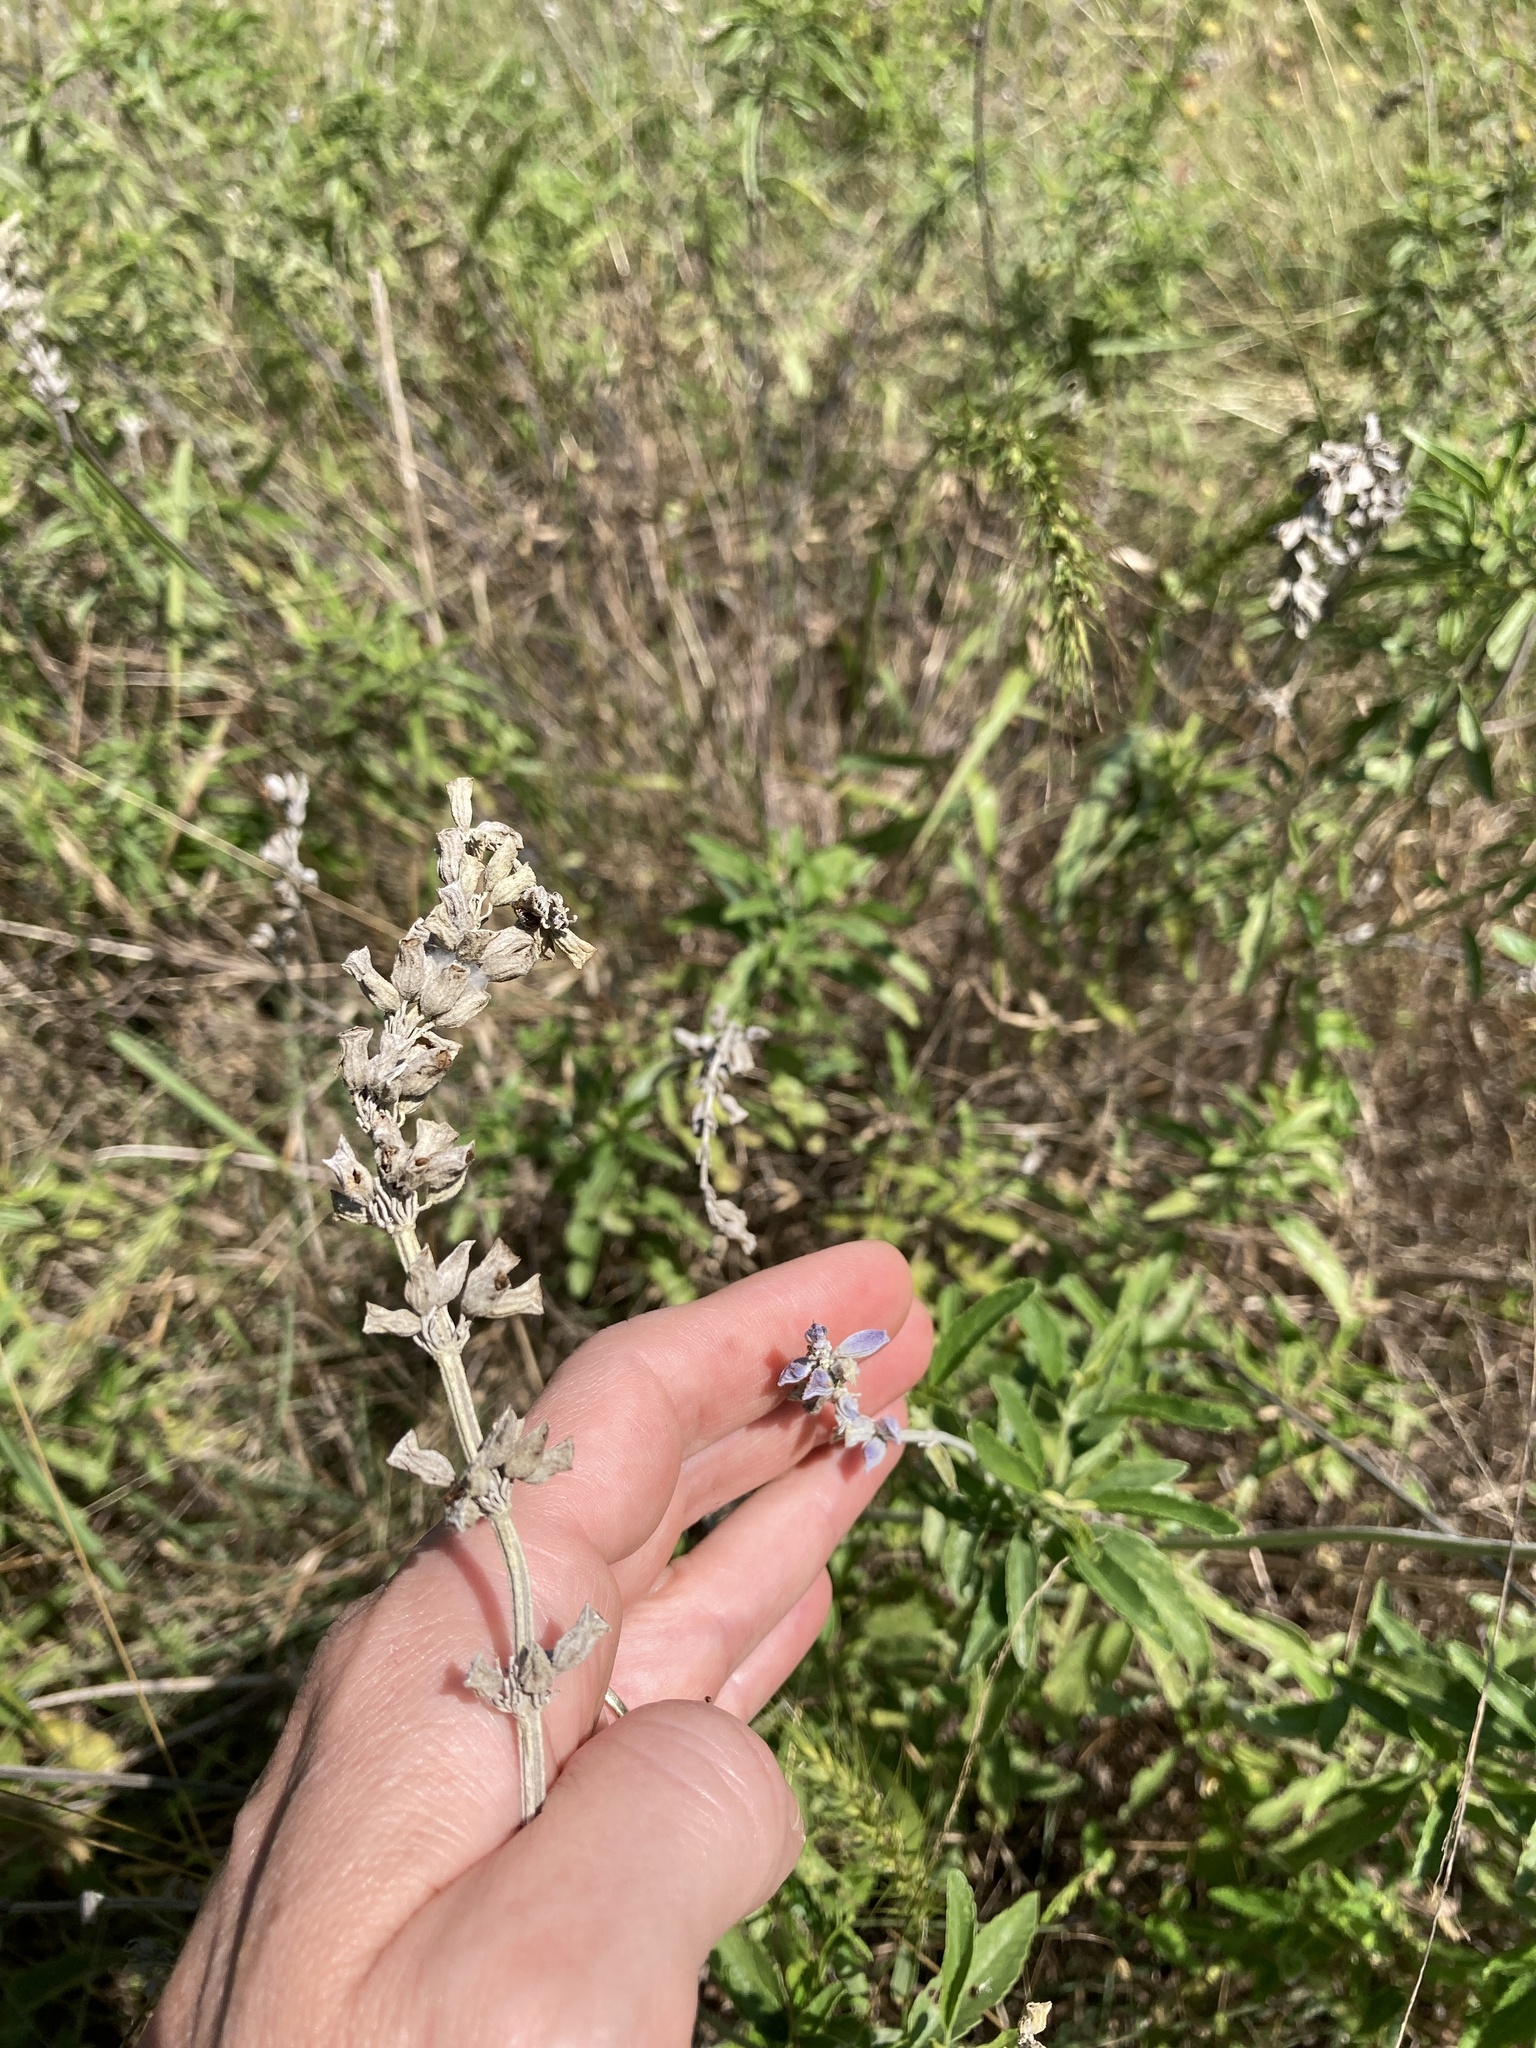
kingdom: Plantae
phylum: Tracheophyta
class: Magnoliopsida
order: Lamiales
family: Lamiaceae
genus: Salvia
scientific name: Salvia farinacea
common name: Mealy sage
